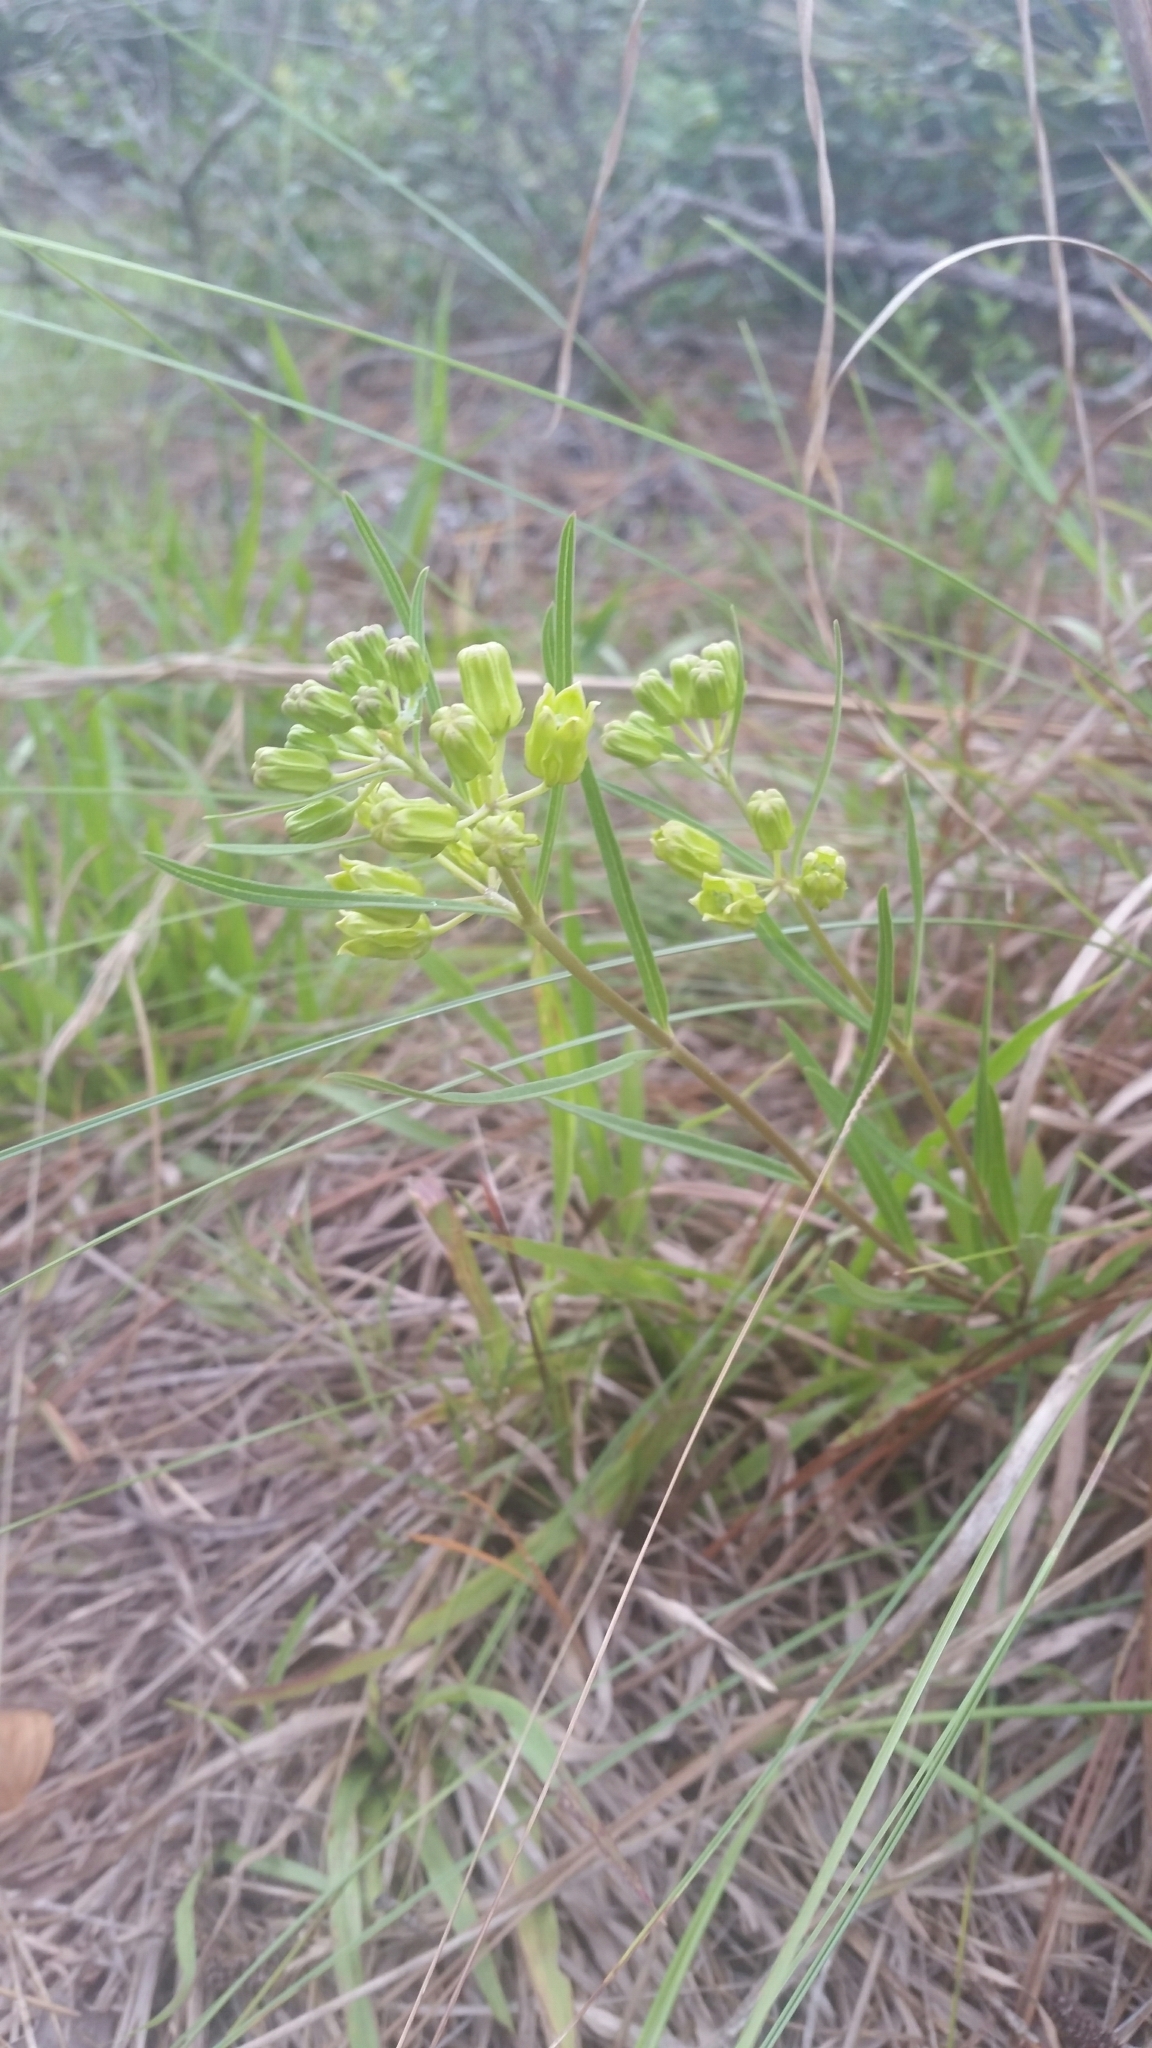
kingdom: Plantae
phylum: Tracheophyta
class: Magnoliopsida
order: Gentianales
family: Apocynaceae
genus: Asclepias
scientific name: Asclepias pedicellata
